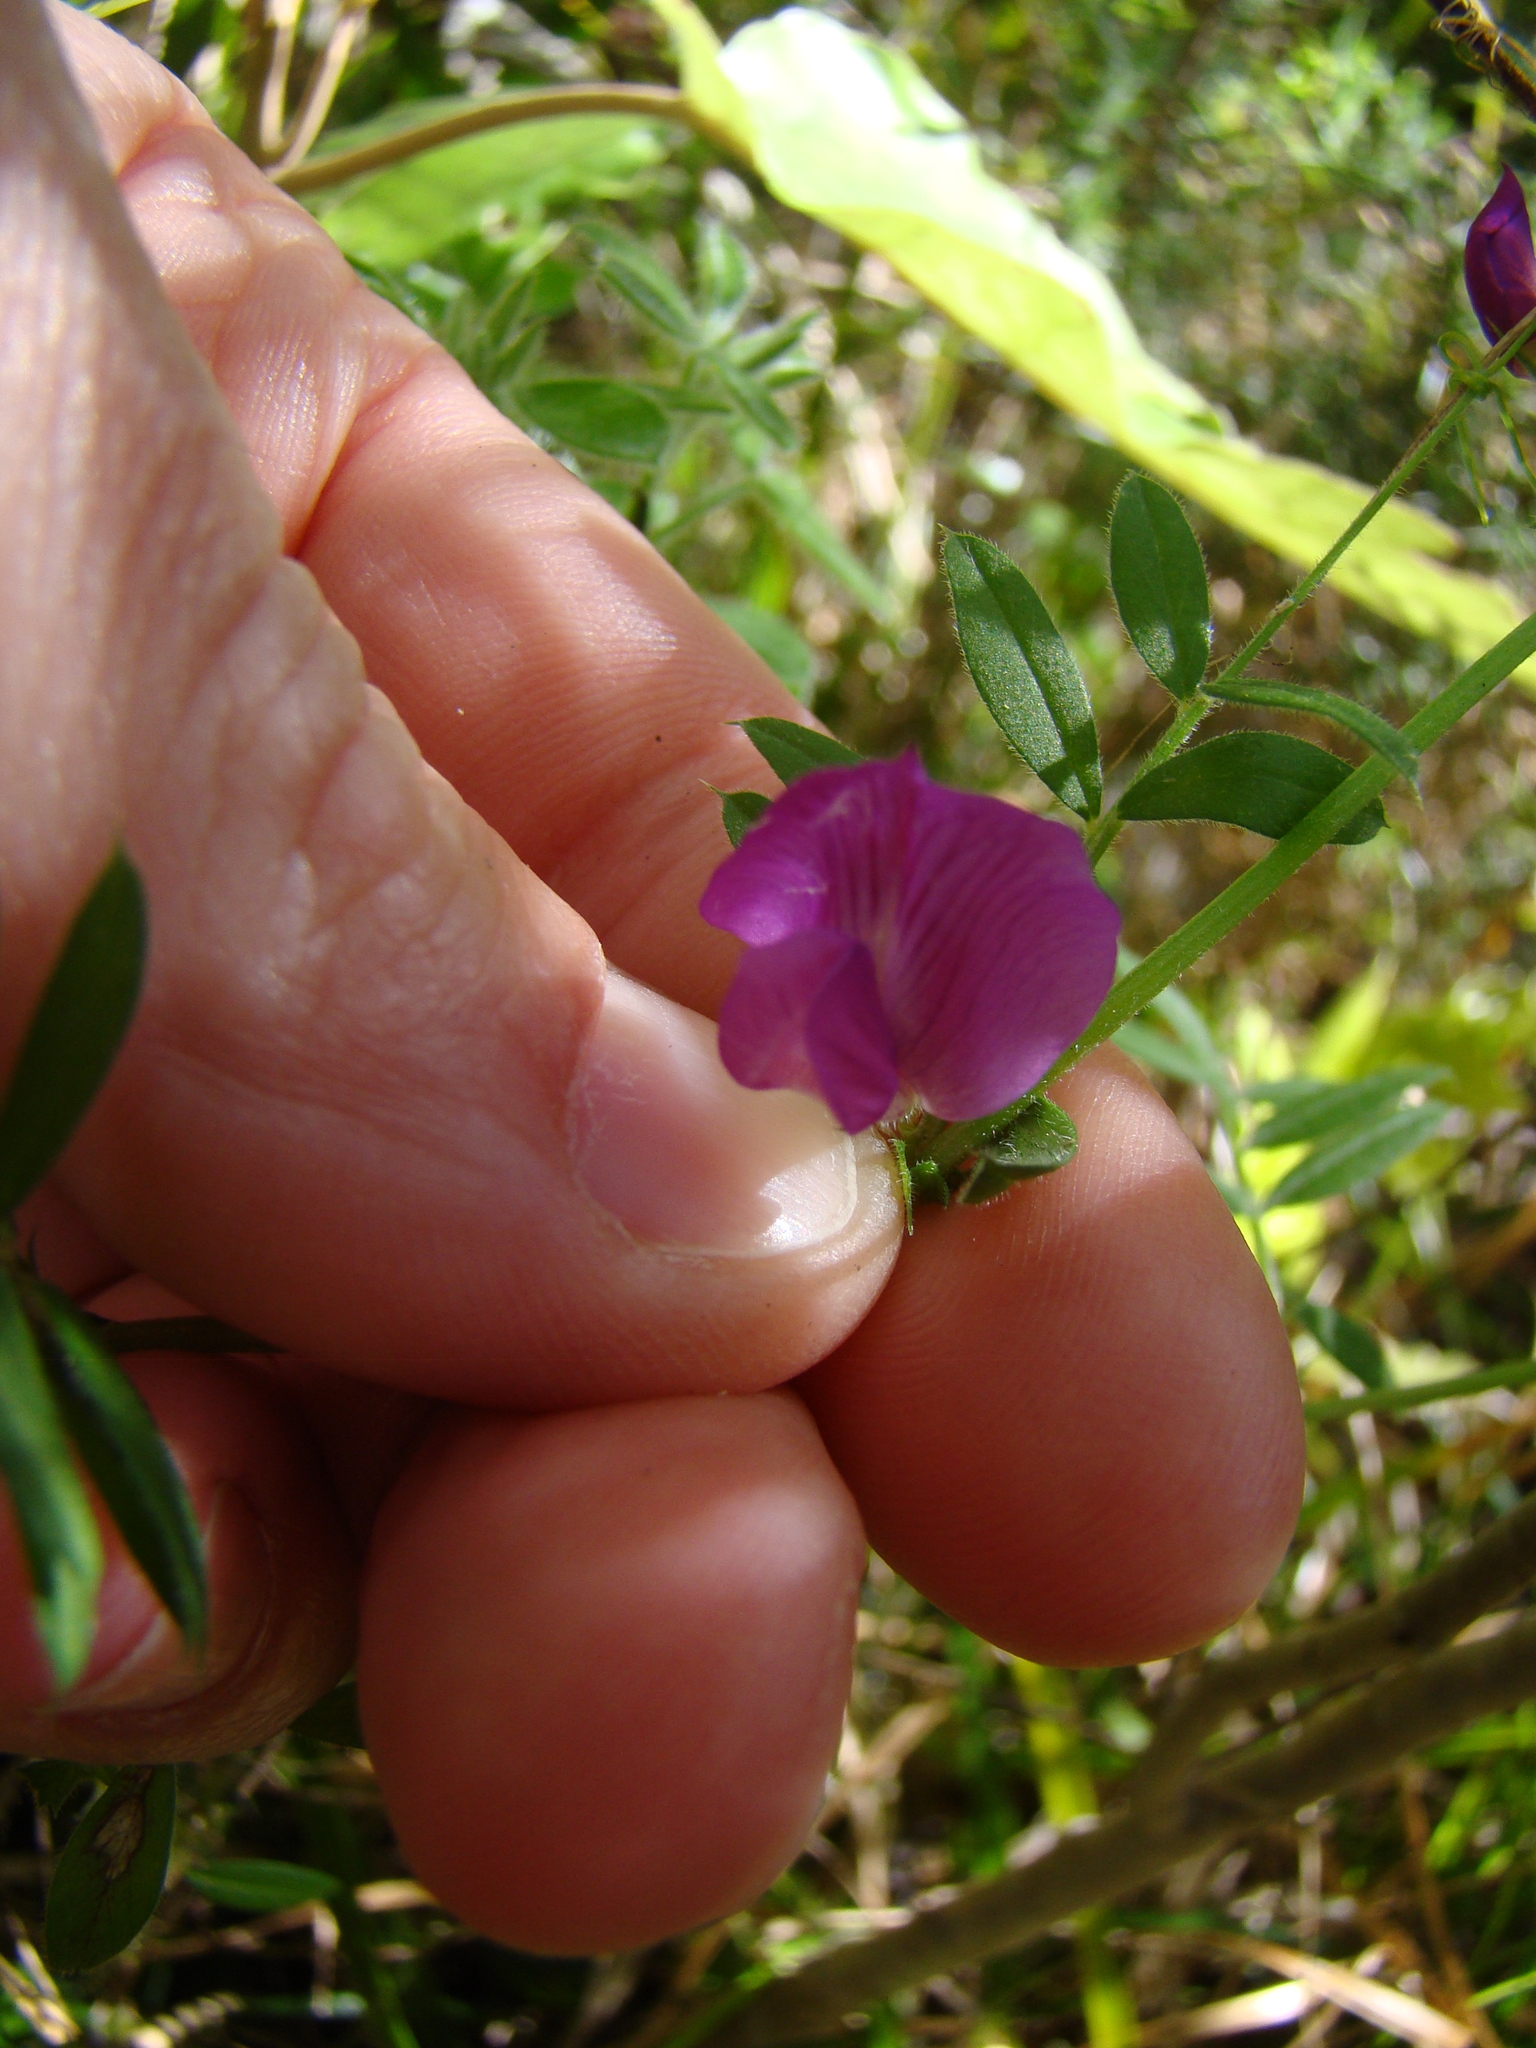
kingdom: Plantae
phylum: Tracheophyta
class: Magnoliopsida
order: Fabales
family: Fabaceae
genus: Vicia
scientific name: Vicia sativa
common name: Garden vetch
